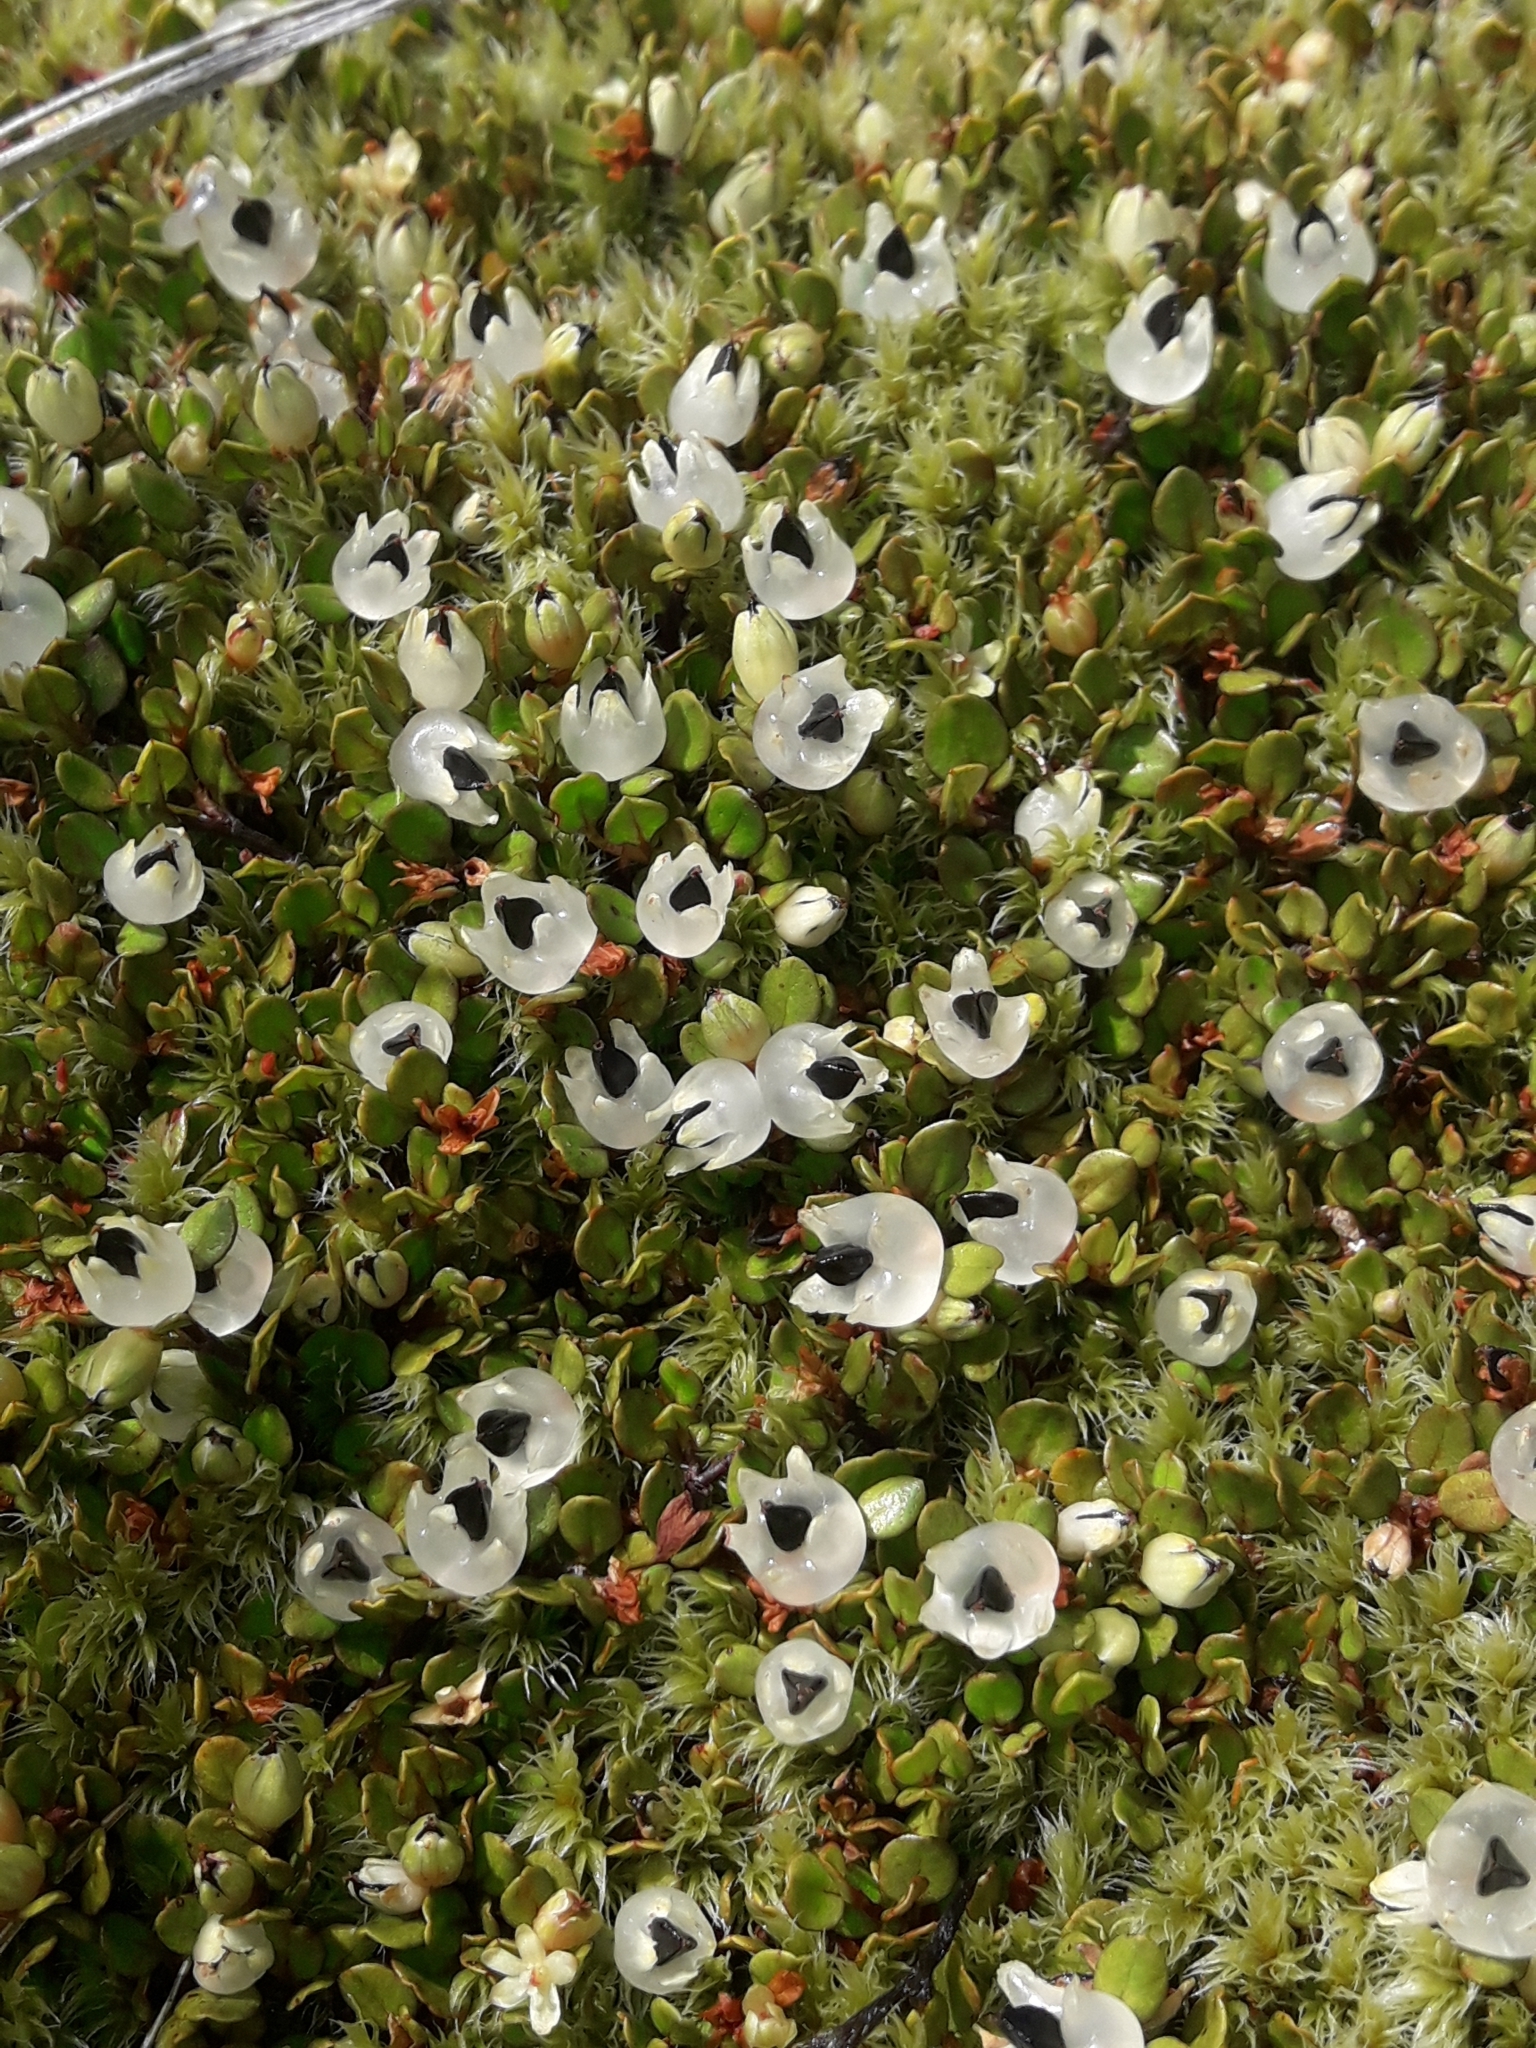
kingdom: Plantae
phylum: Tracheophyta
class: Magnoliopsida
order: Caryophyllales
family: Polygonaceae
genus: Muehlenbeckia
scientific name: Muehlenbeckia axillaris
